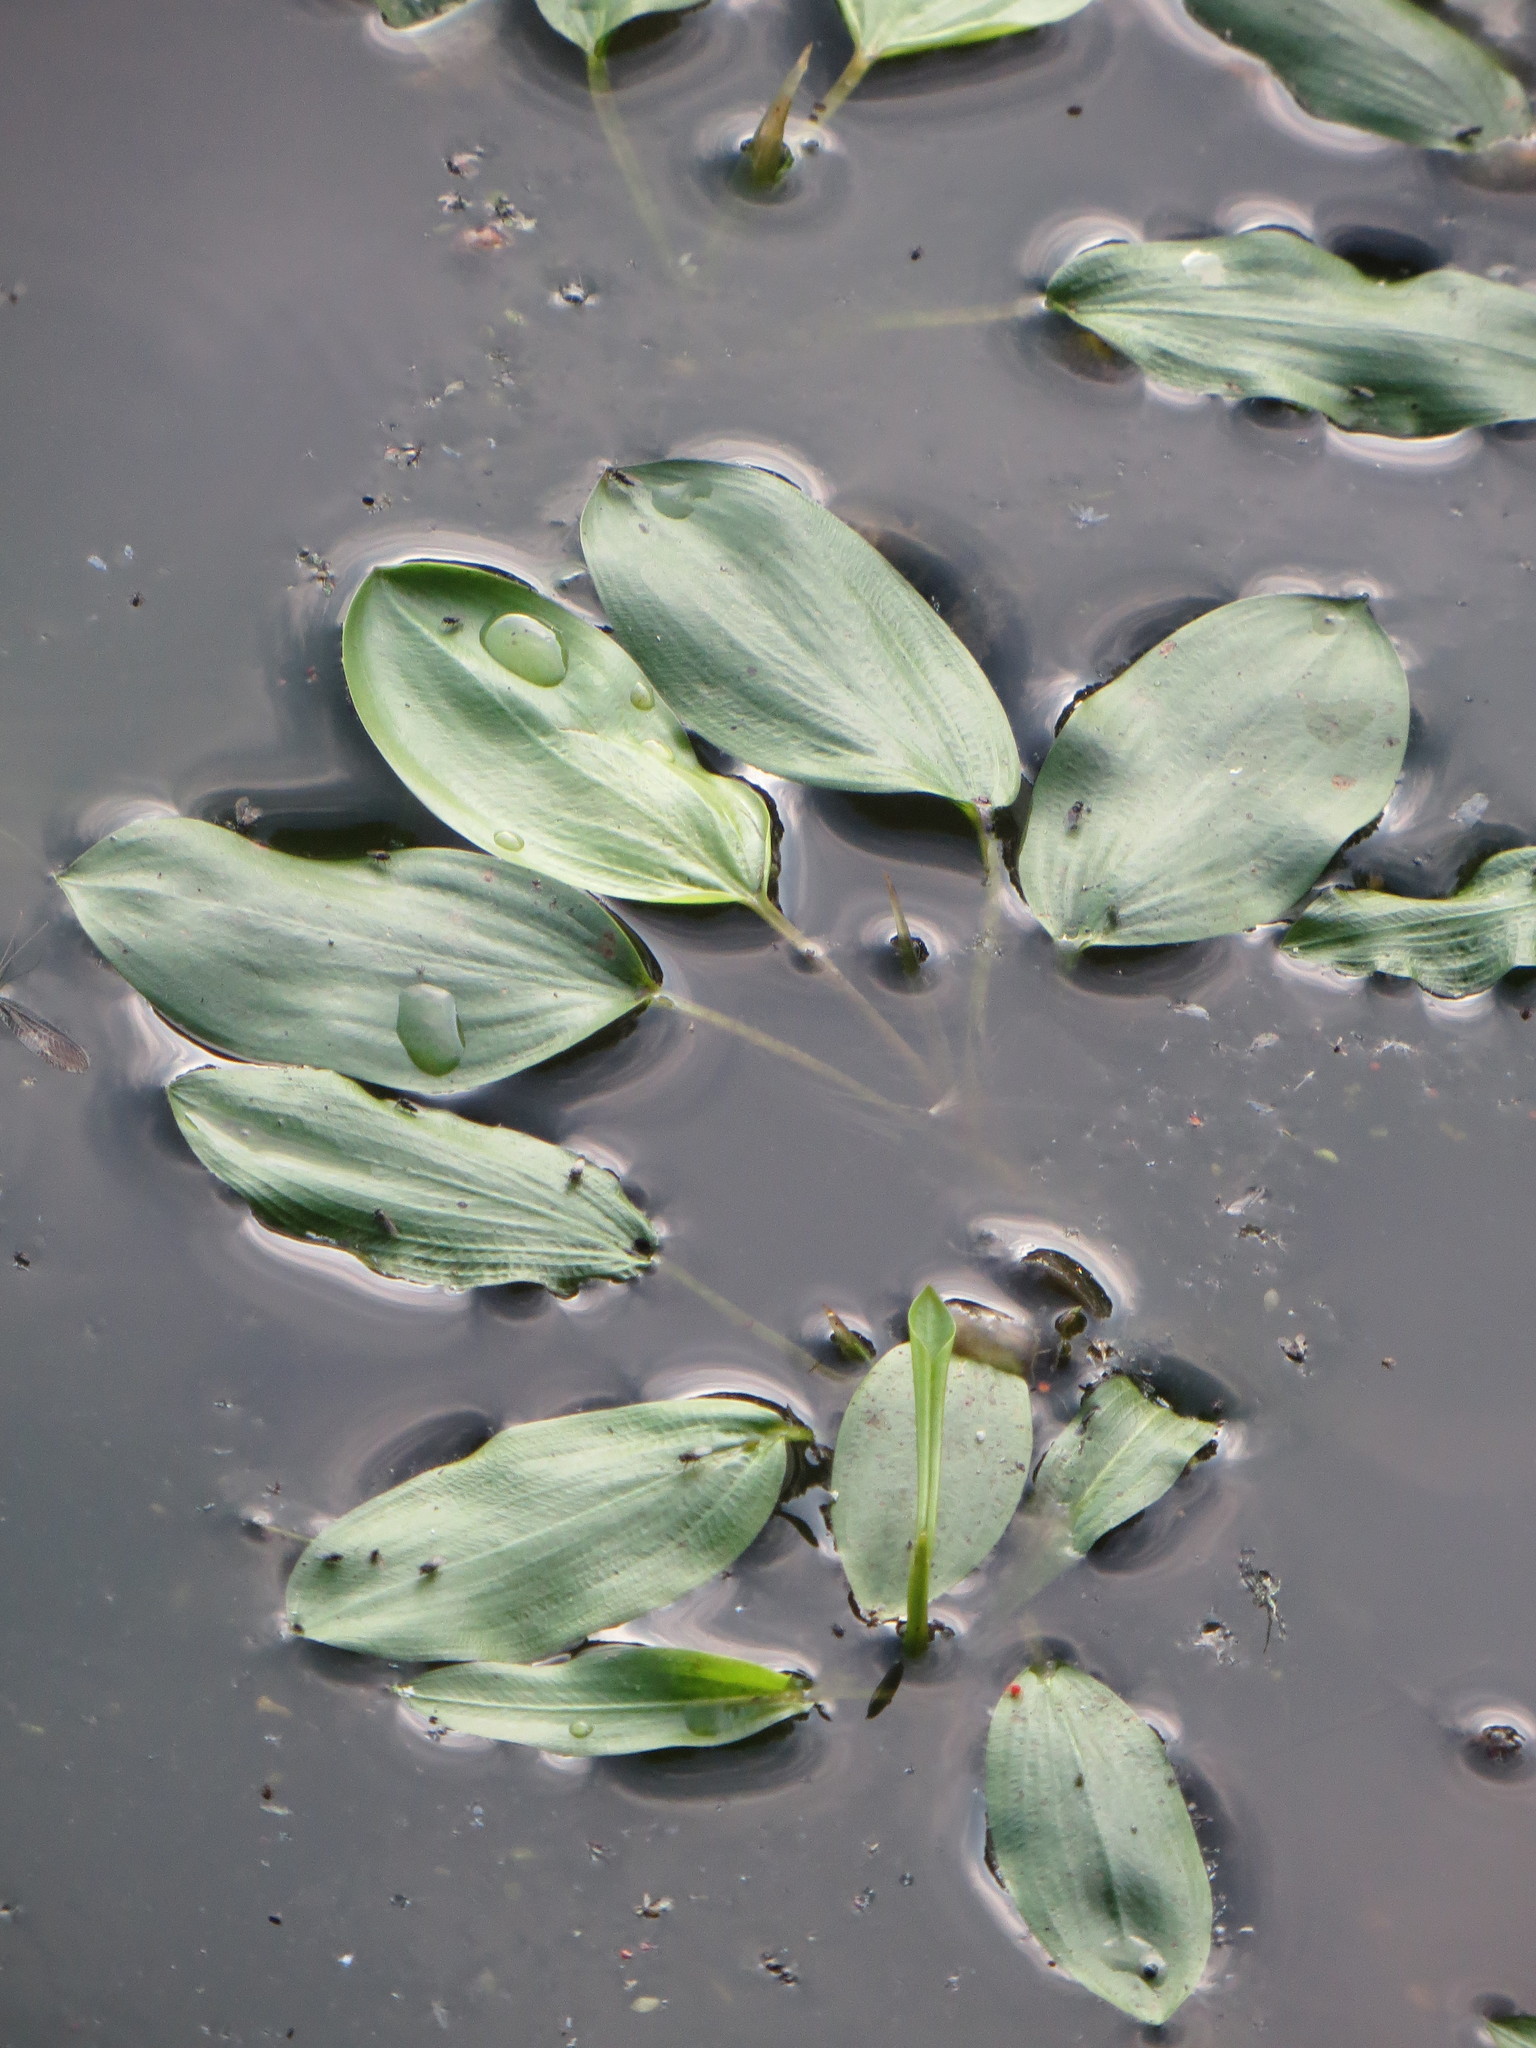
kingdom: Plantae
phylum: Tracheophyta
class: Liliopsida
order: Alismatales
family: Potamogetonaceae
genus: Potamogeton
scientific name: Potamogeton natans
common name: Broad-leaved pondweed
